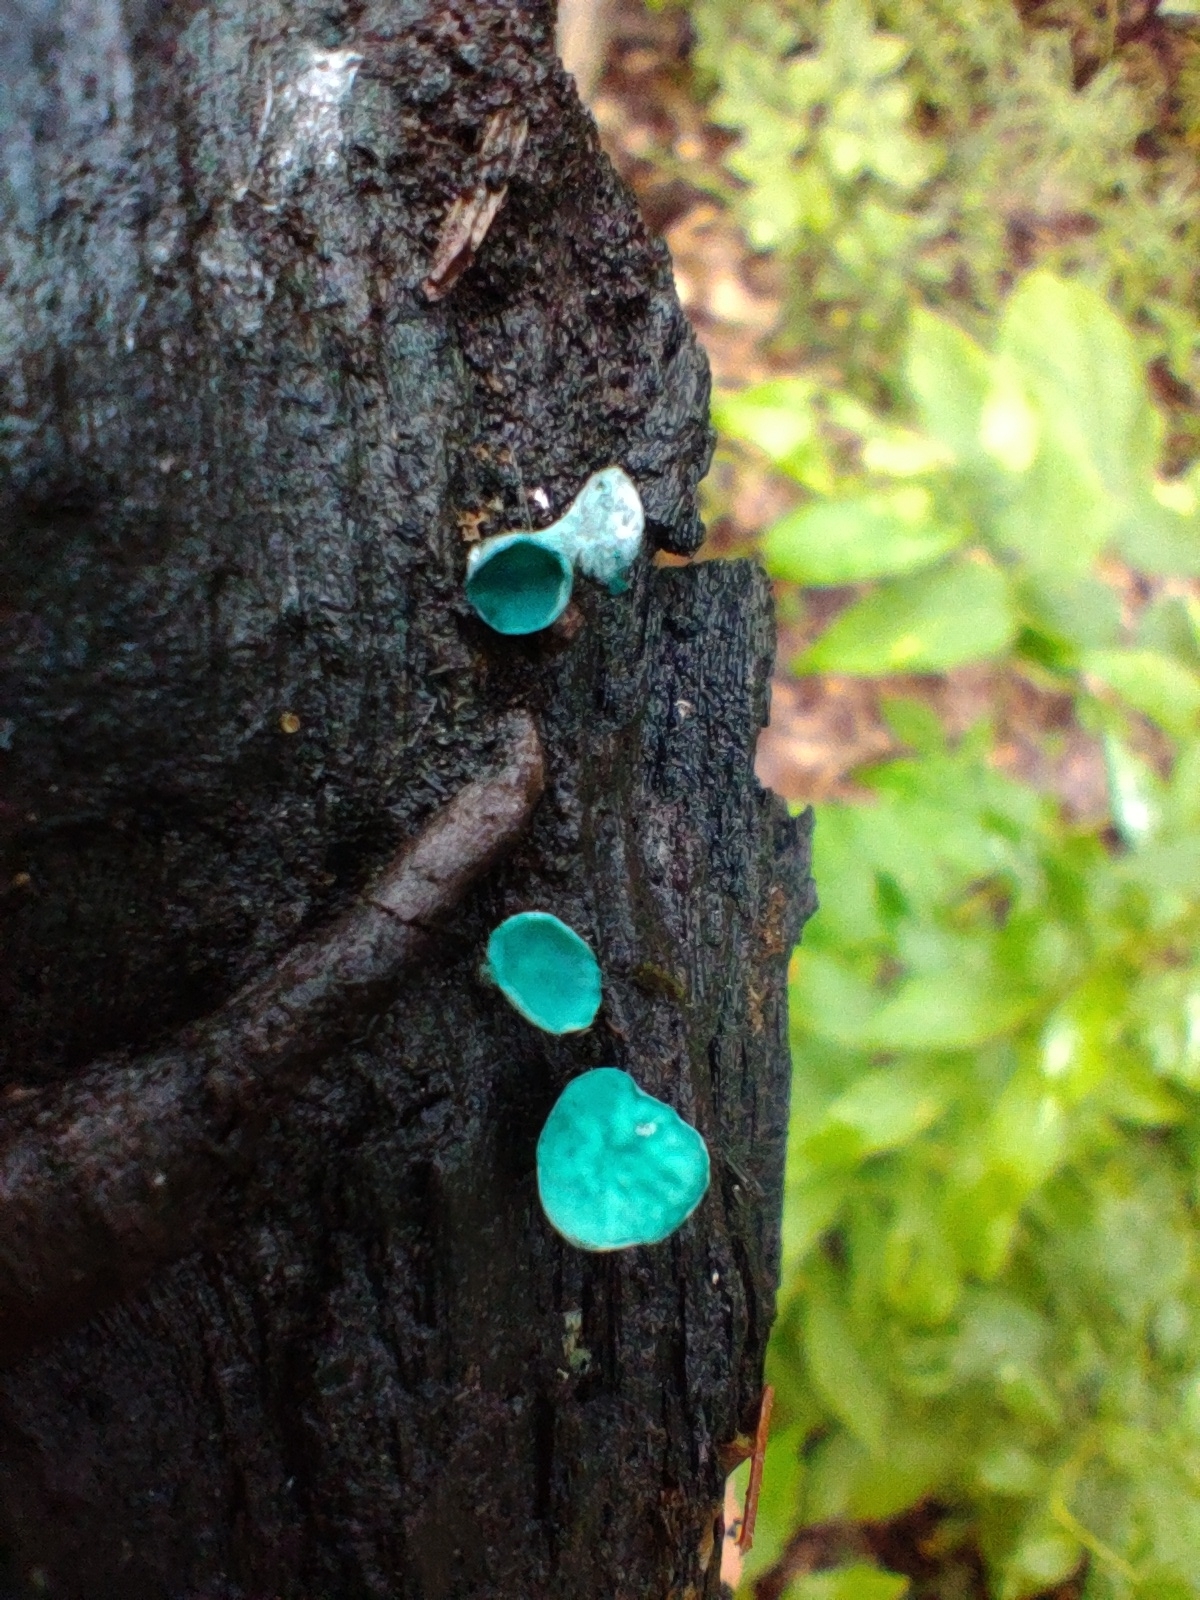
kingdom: Fungi
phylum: Ascomycota
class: Leotiomycetes
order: Helotiales
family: Chlorociboriaceae
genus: Chlorociboria
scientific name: Chlorociboria aeruginascens
